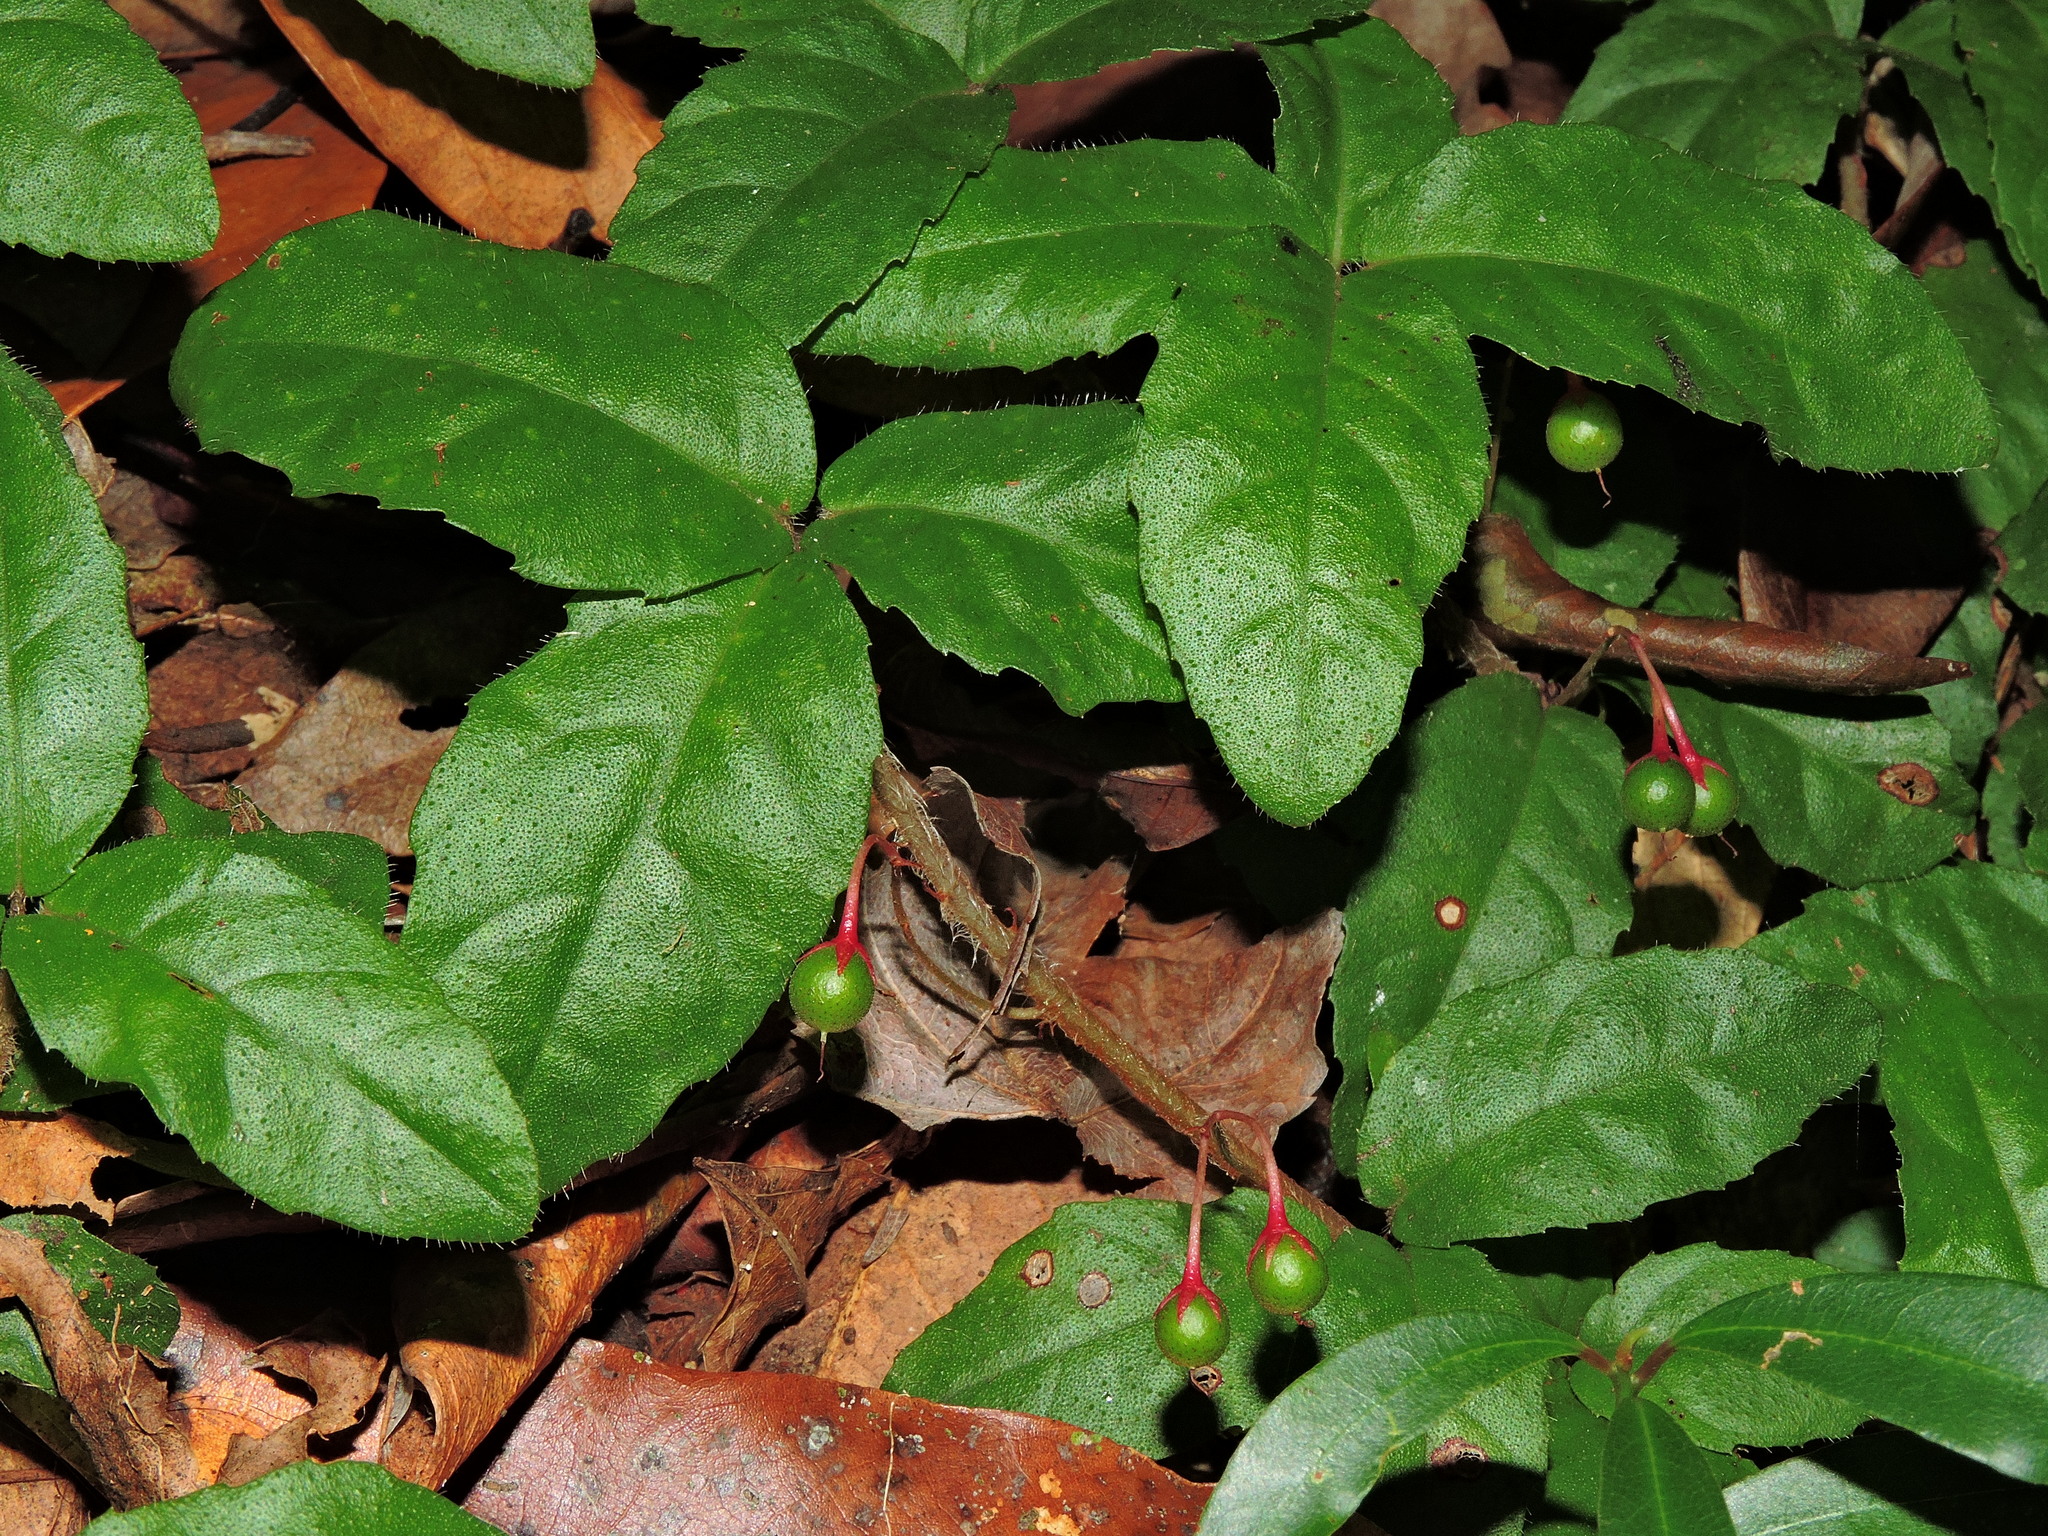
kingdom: Plantae
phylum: Tracheophyta
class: Magnoliopsida
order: Ericales
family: Primulaceae
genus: Ardisia
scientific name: Ardisia pusilla
